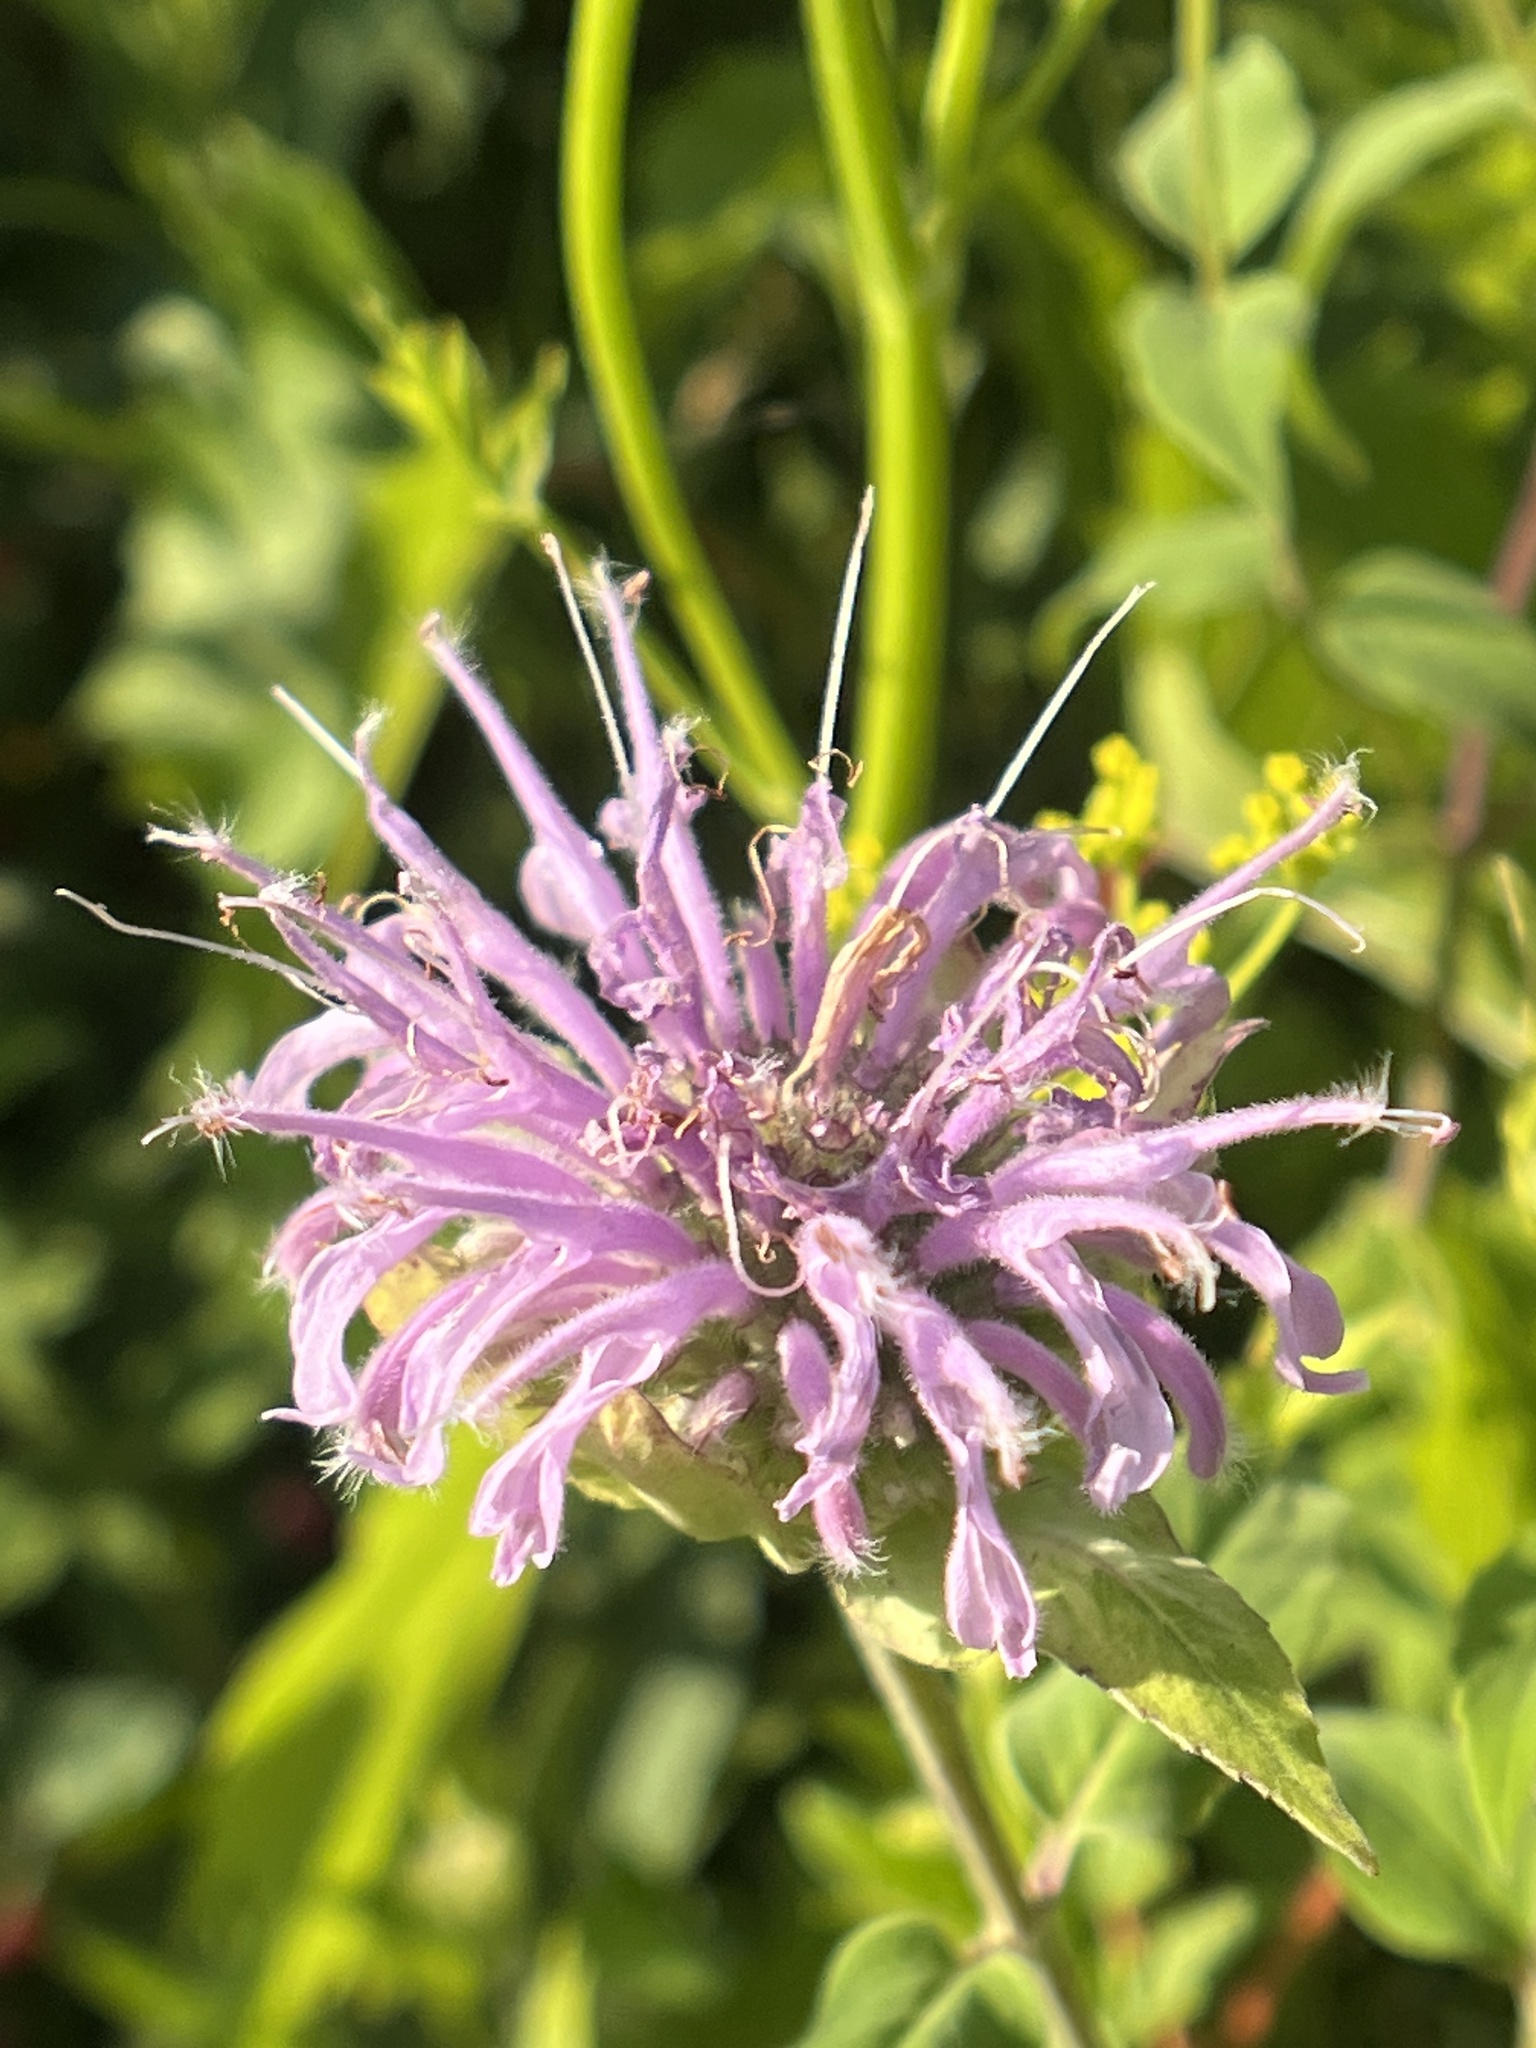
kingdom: Plantae
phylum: Tracheophyta
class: Magnoliopsida
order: Lamiales
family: Lamiaceae
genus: Monarda
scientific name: Monarda fistulosa
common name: Purple beebalm
